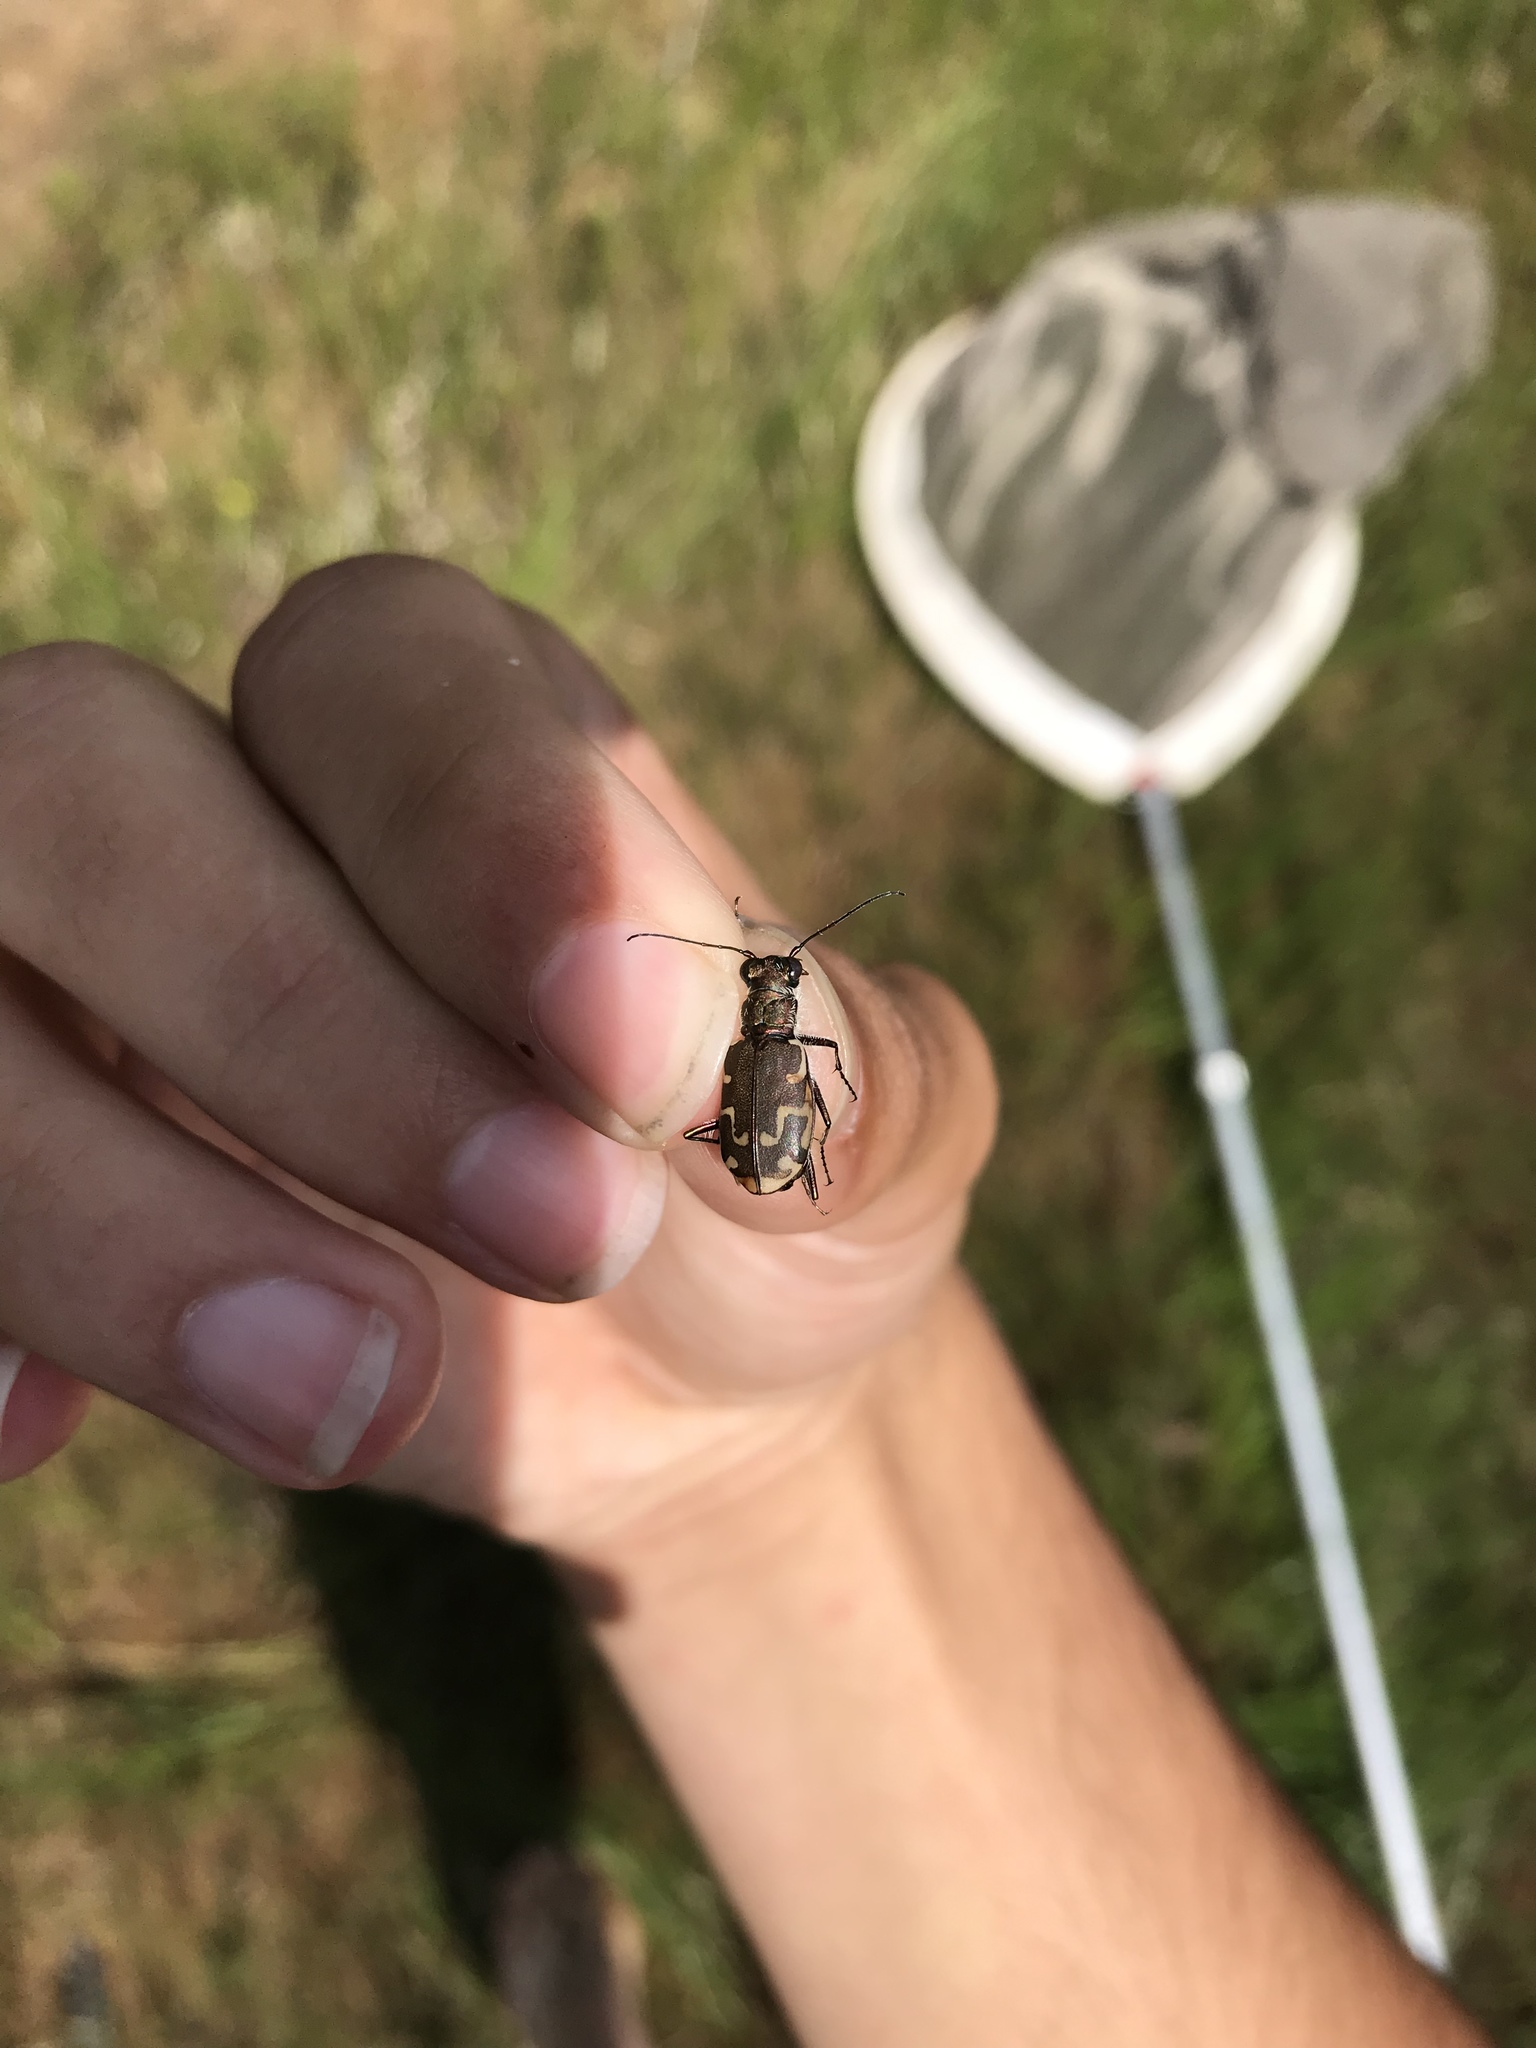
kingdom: Animalia
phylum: Arthropoda
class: Insecta
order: Coleoptera
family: Carabidae
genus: Cicindela
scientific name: Cicindela repanda
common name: Bronzed tiger beetle
